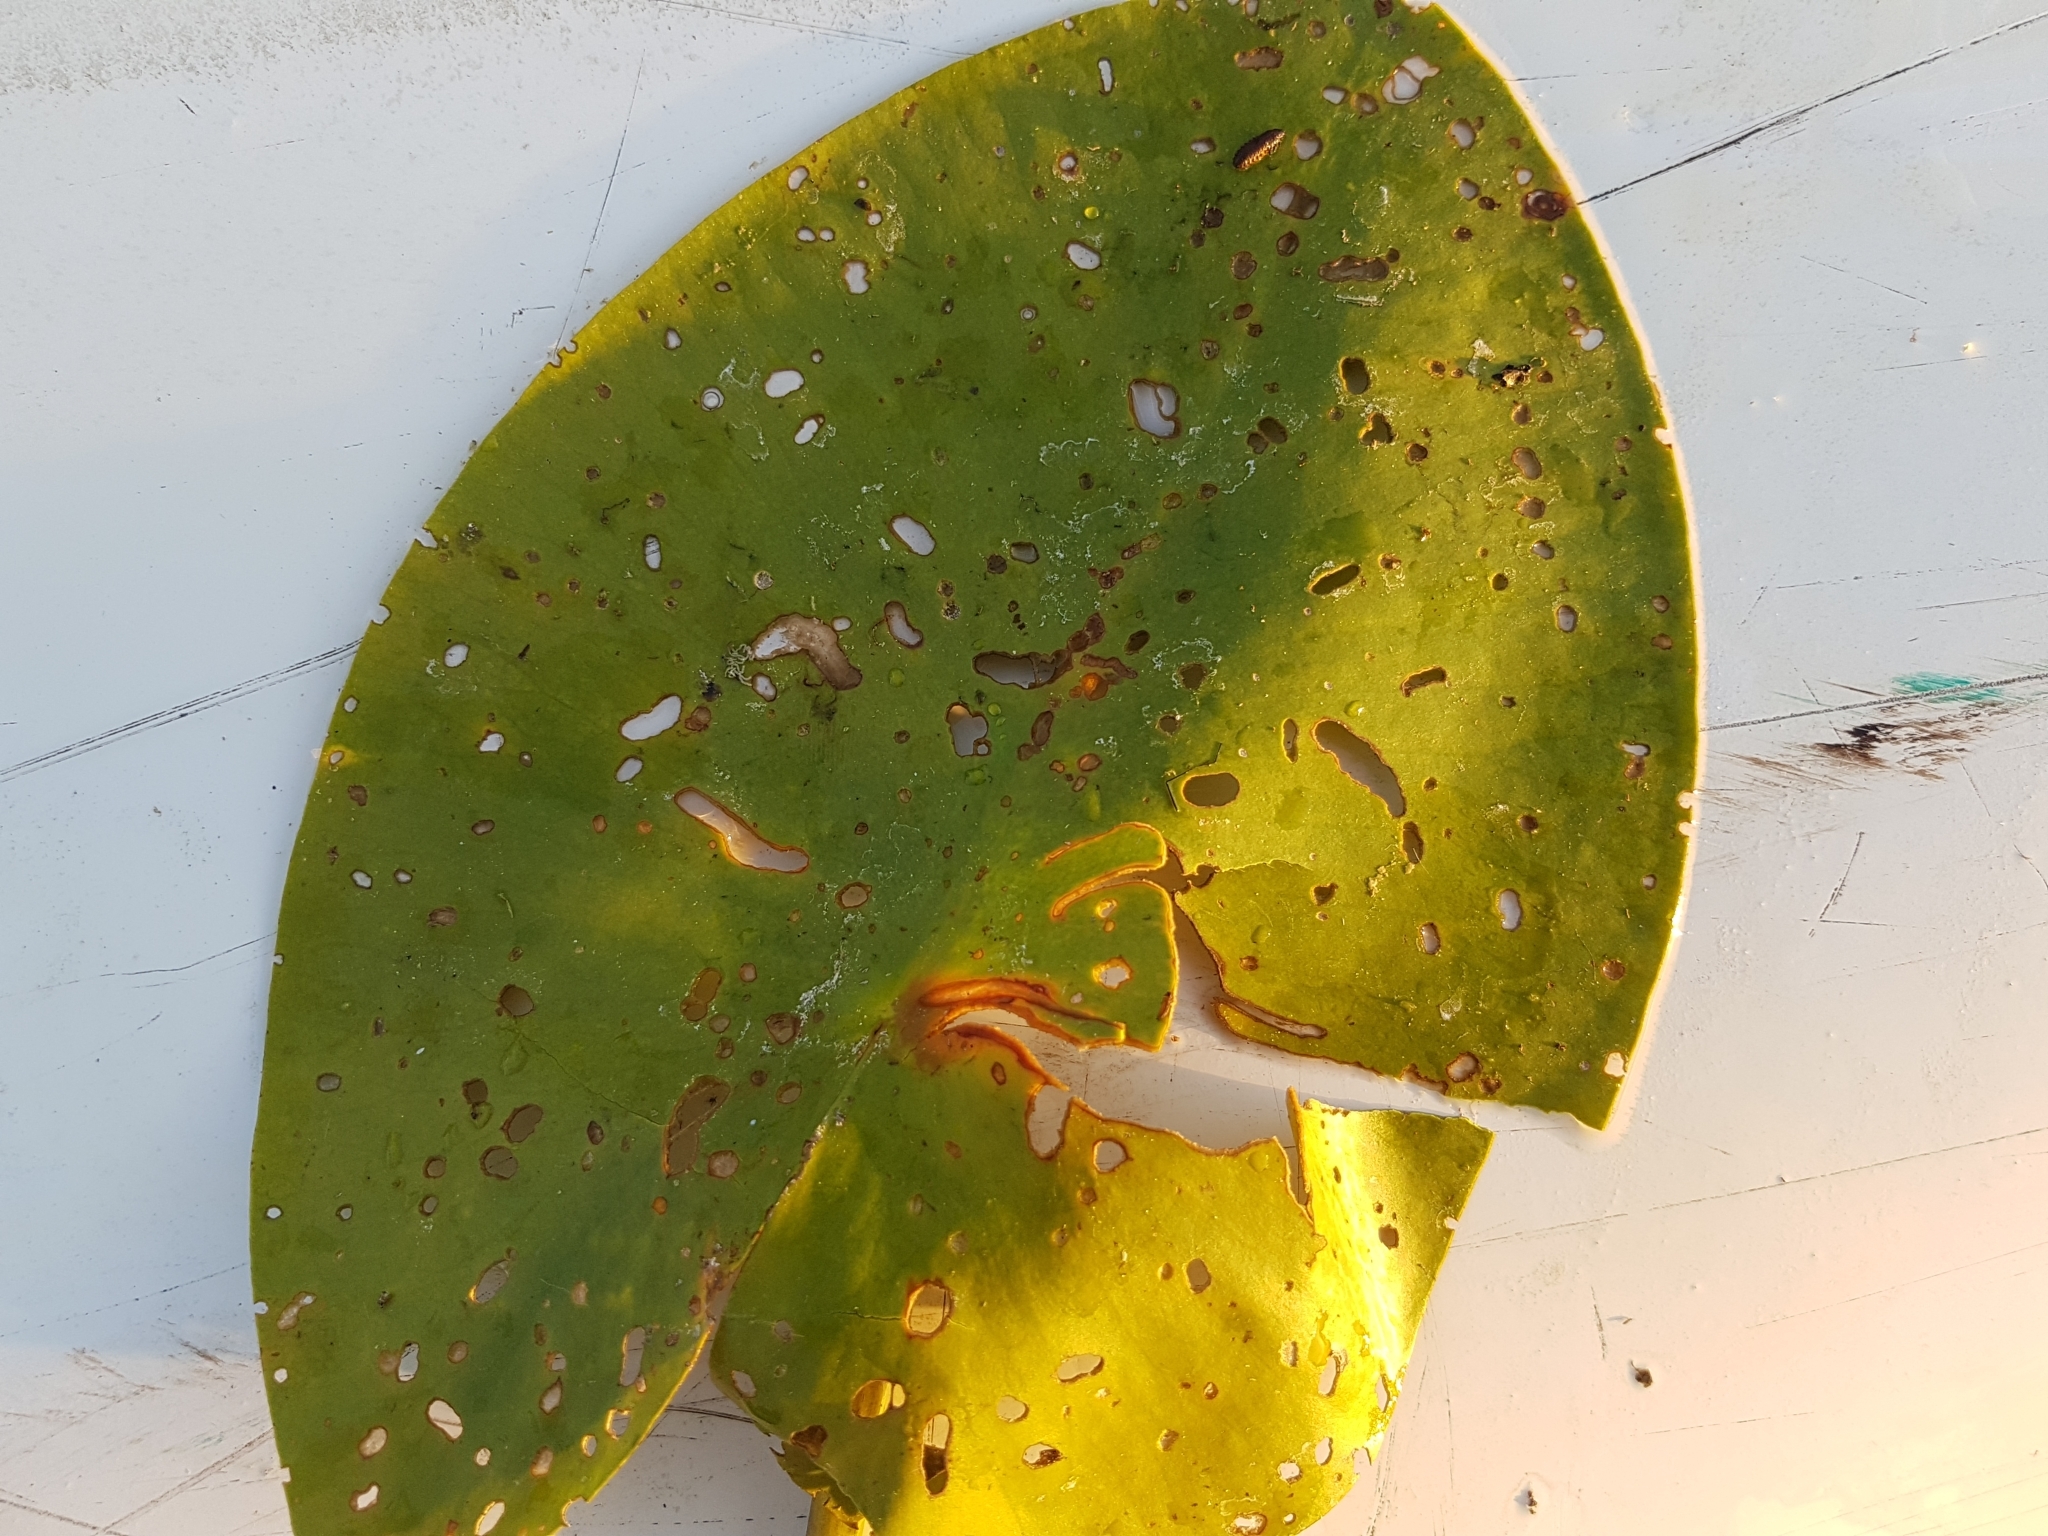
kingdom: Animalia
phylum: Arthropoda
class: Insecta
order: Coleoptera
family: Chrysomelidae
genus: Galerucella
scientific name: Galerucella nymphaeae
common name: Leaf beetle
